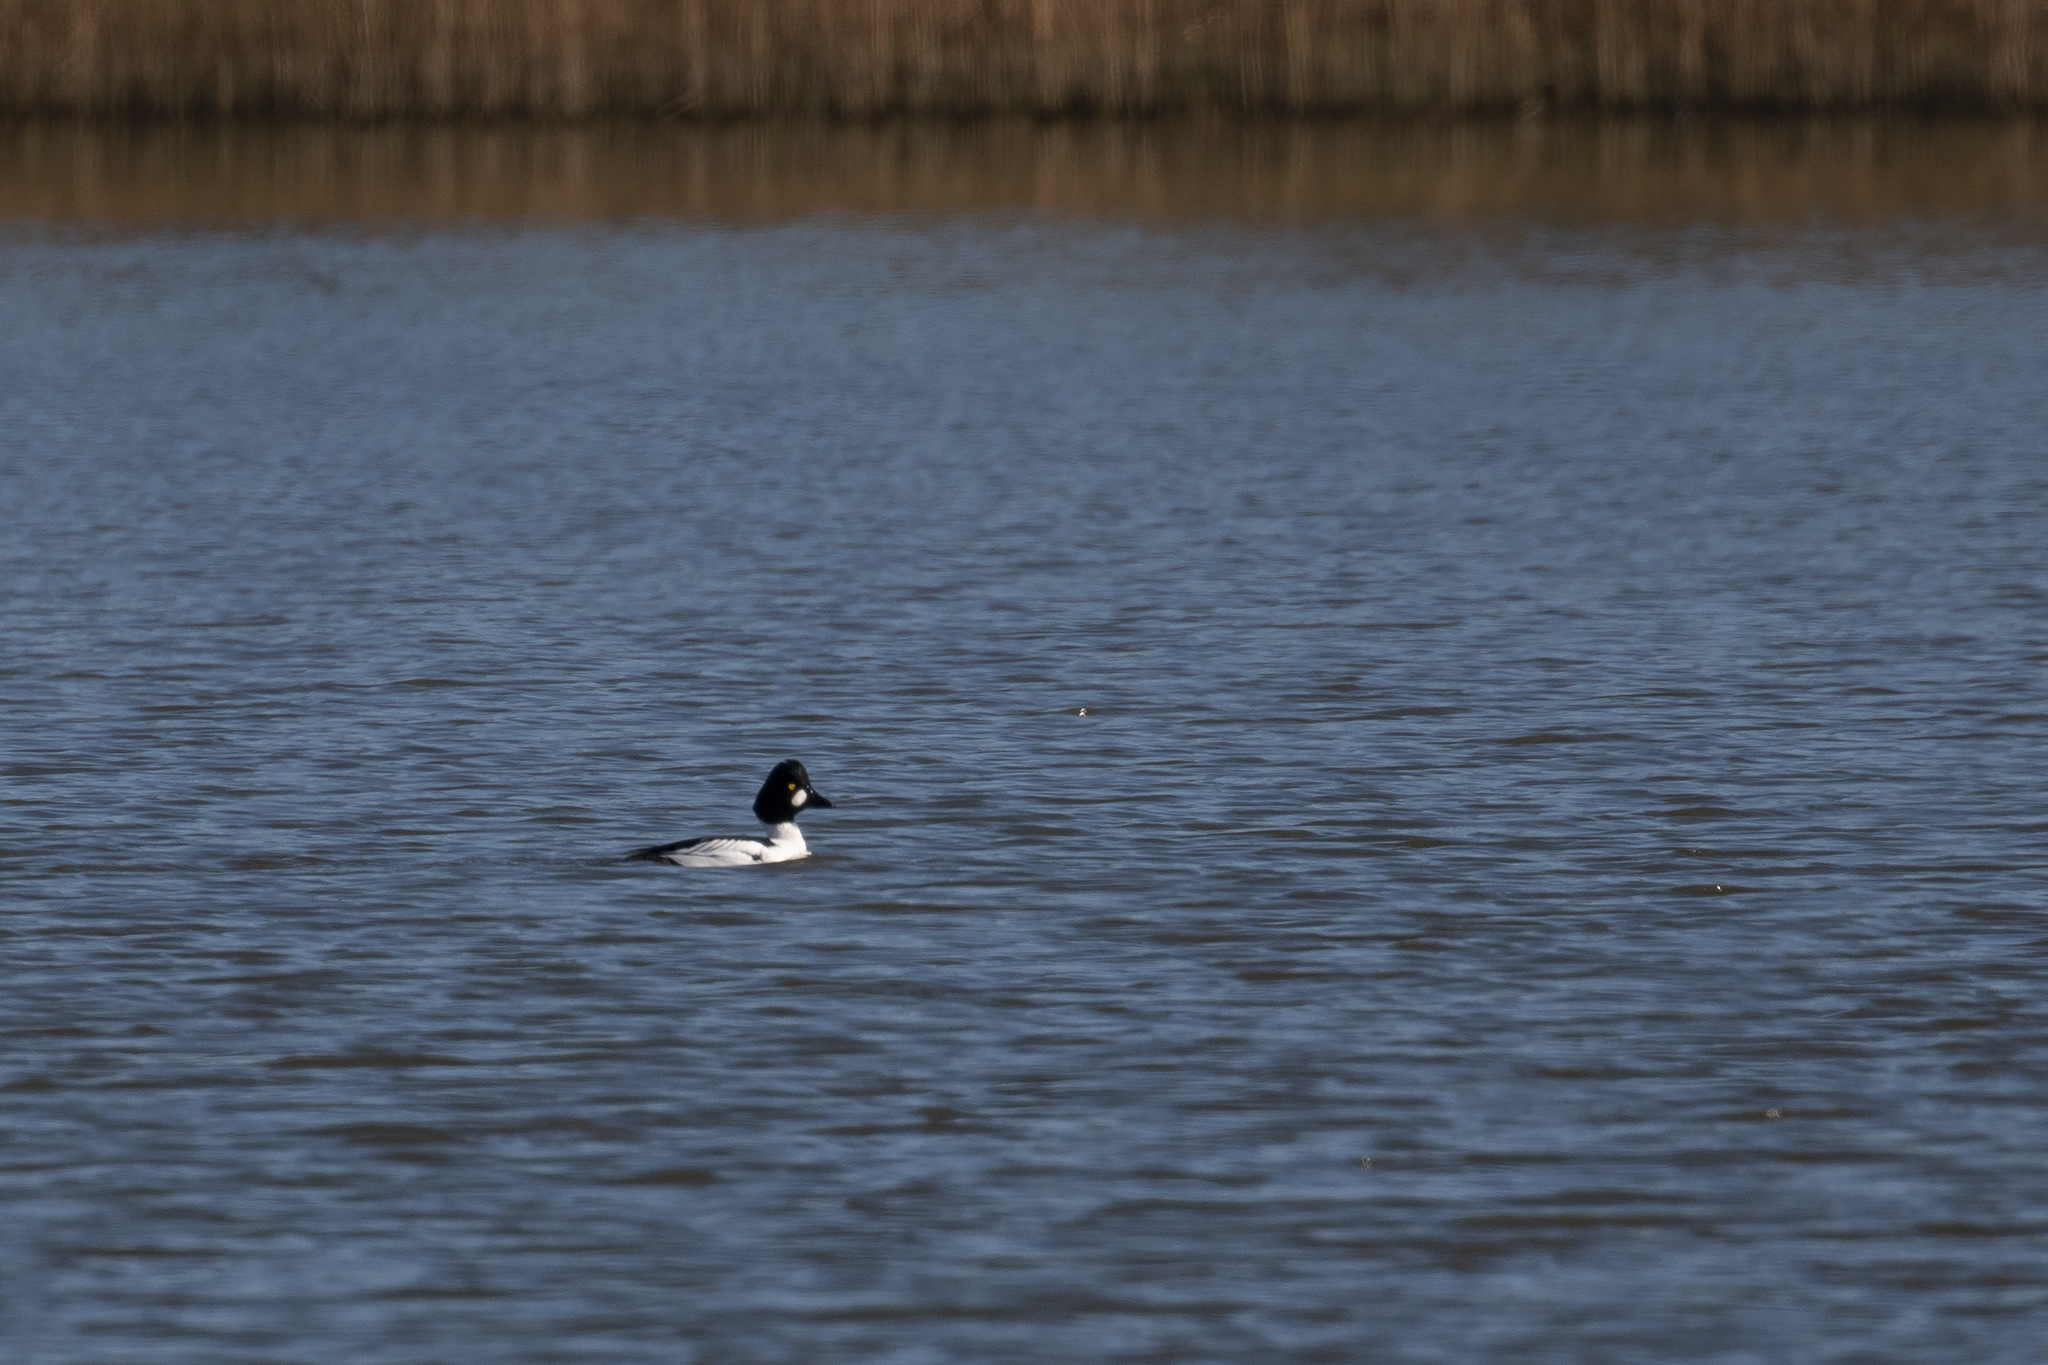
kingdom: Animalia
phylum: Chordata
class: Aves
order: Anseriformes
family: Anatidae
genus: Bucephala
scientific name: Bucephala clangula
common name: Common goldeneye
